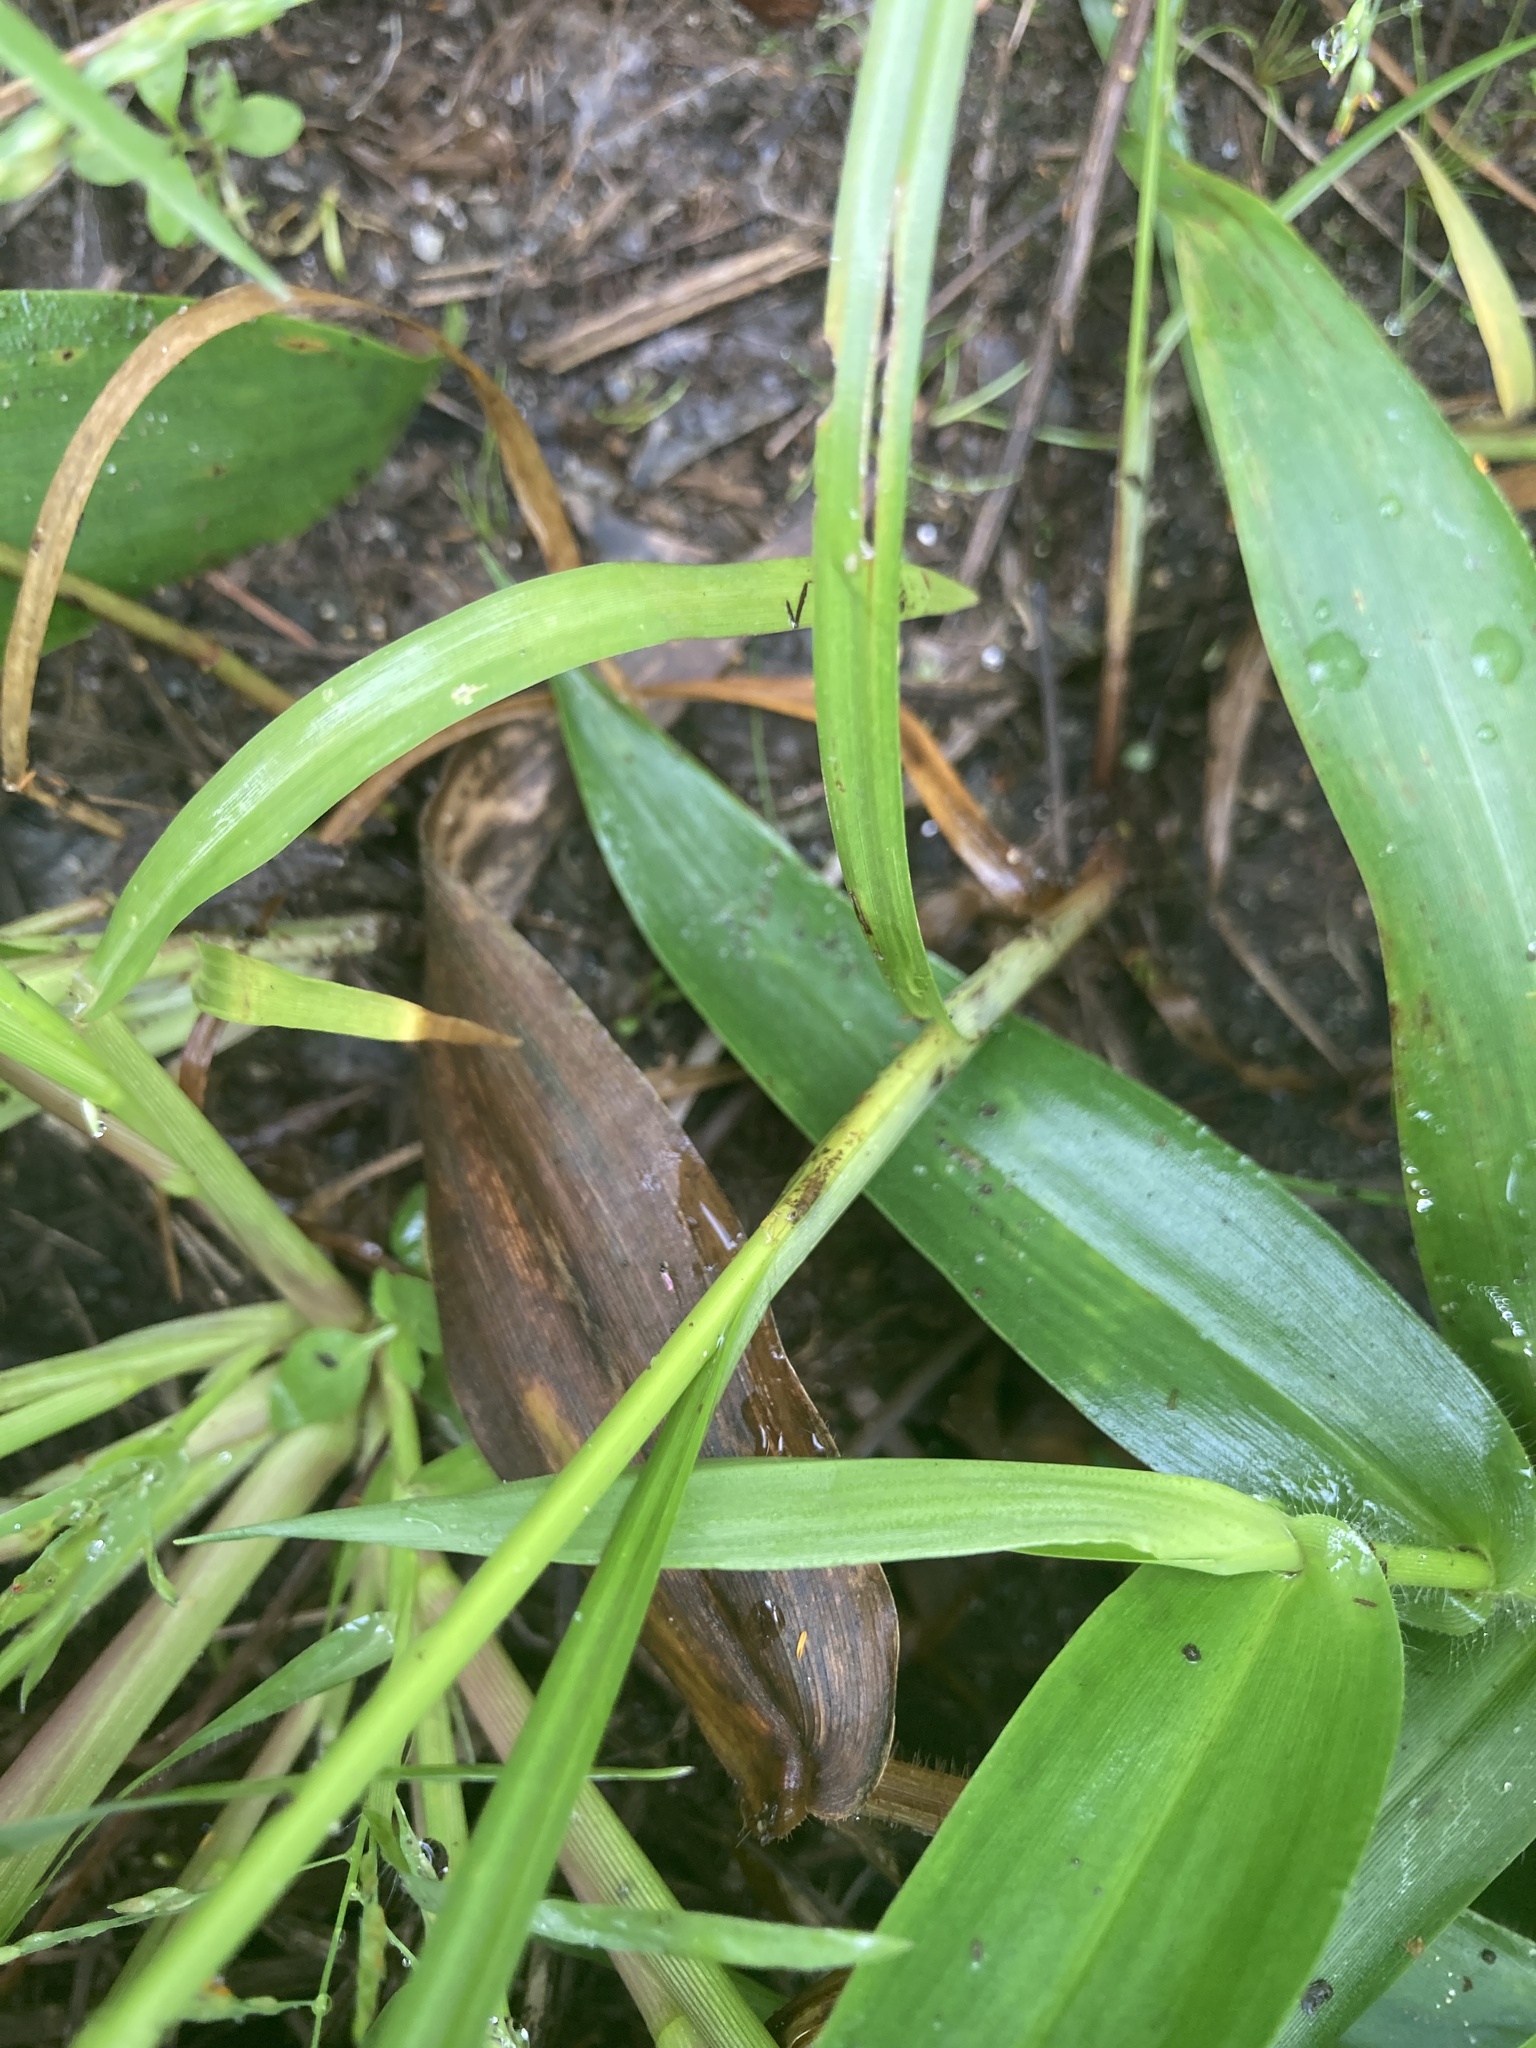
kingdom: Plantae
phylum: Tracheophyta
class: Liliopsida
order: Poales
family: Cyperaceae
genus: Cyperus
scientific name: Cyperus strigosus
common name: False nutsedge
